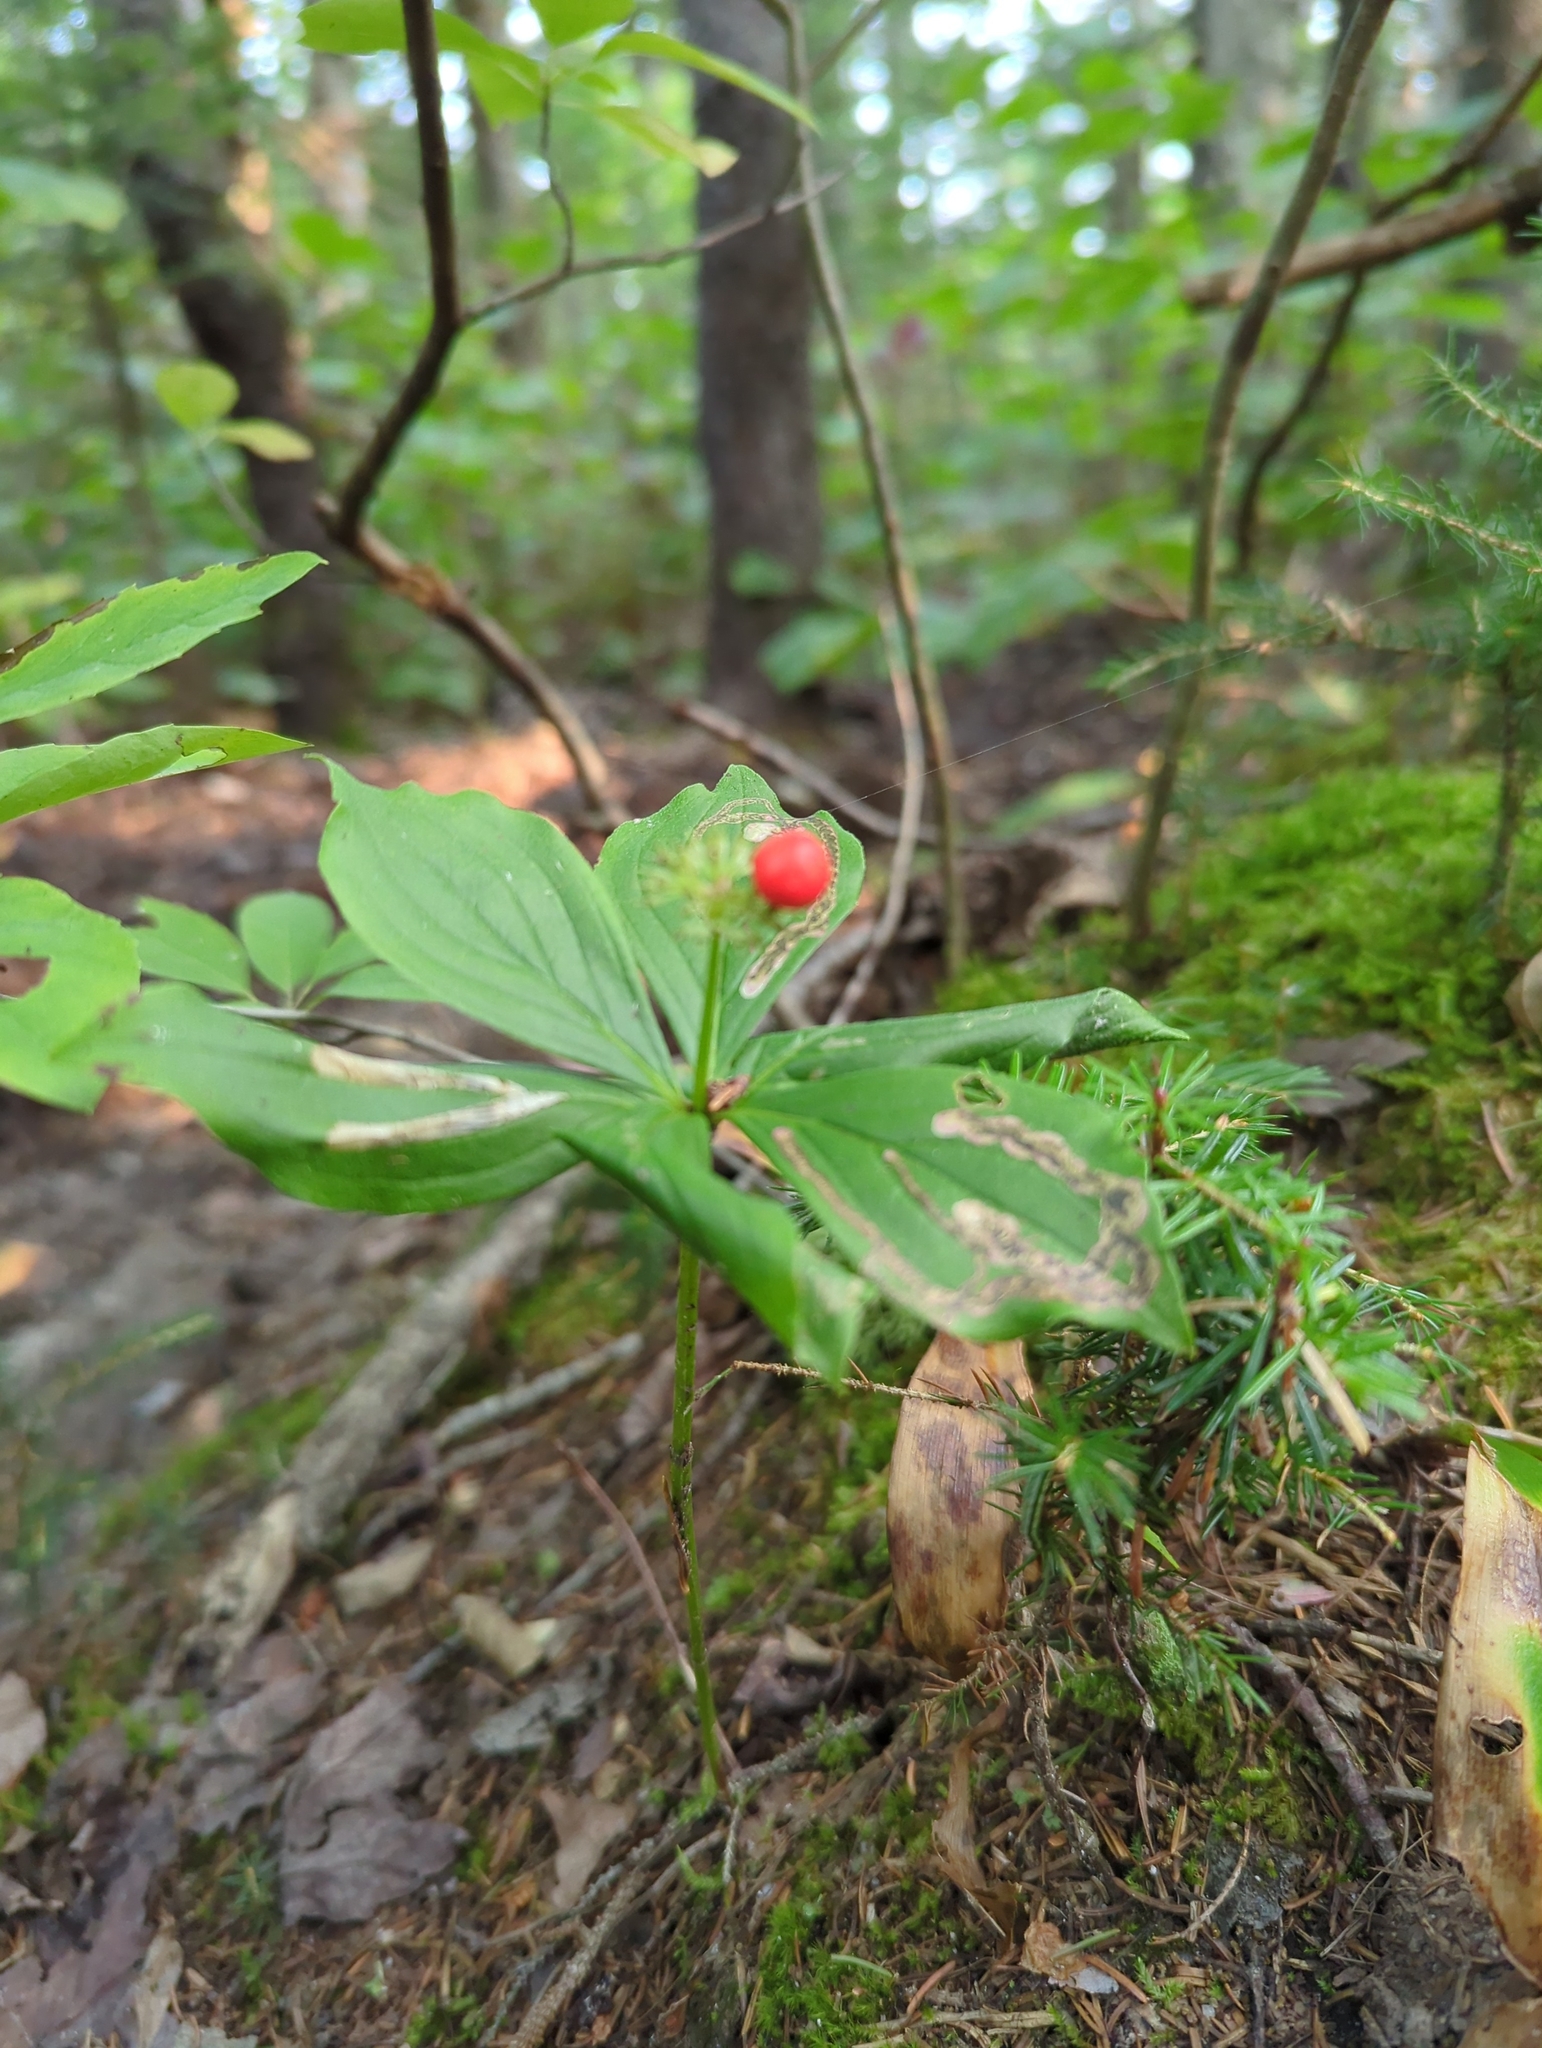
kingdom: Plantae
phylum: Tracheophyta
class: Magnoliopsida
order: Cornales
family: Cornaceae
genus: Cornus
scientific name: Cornus canadensis
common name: Creeping dogwood
